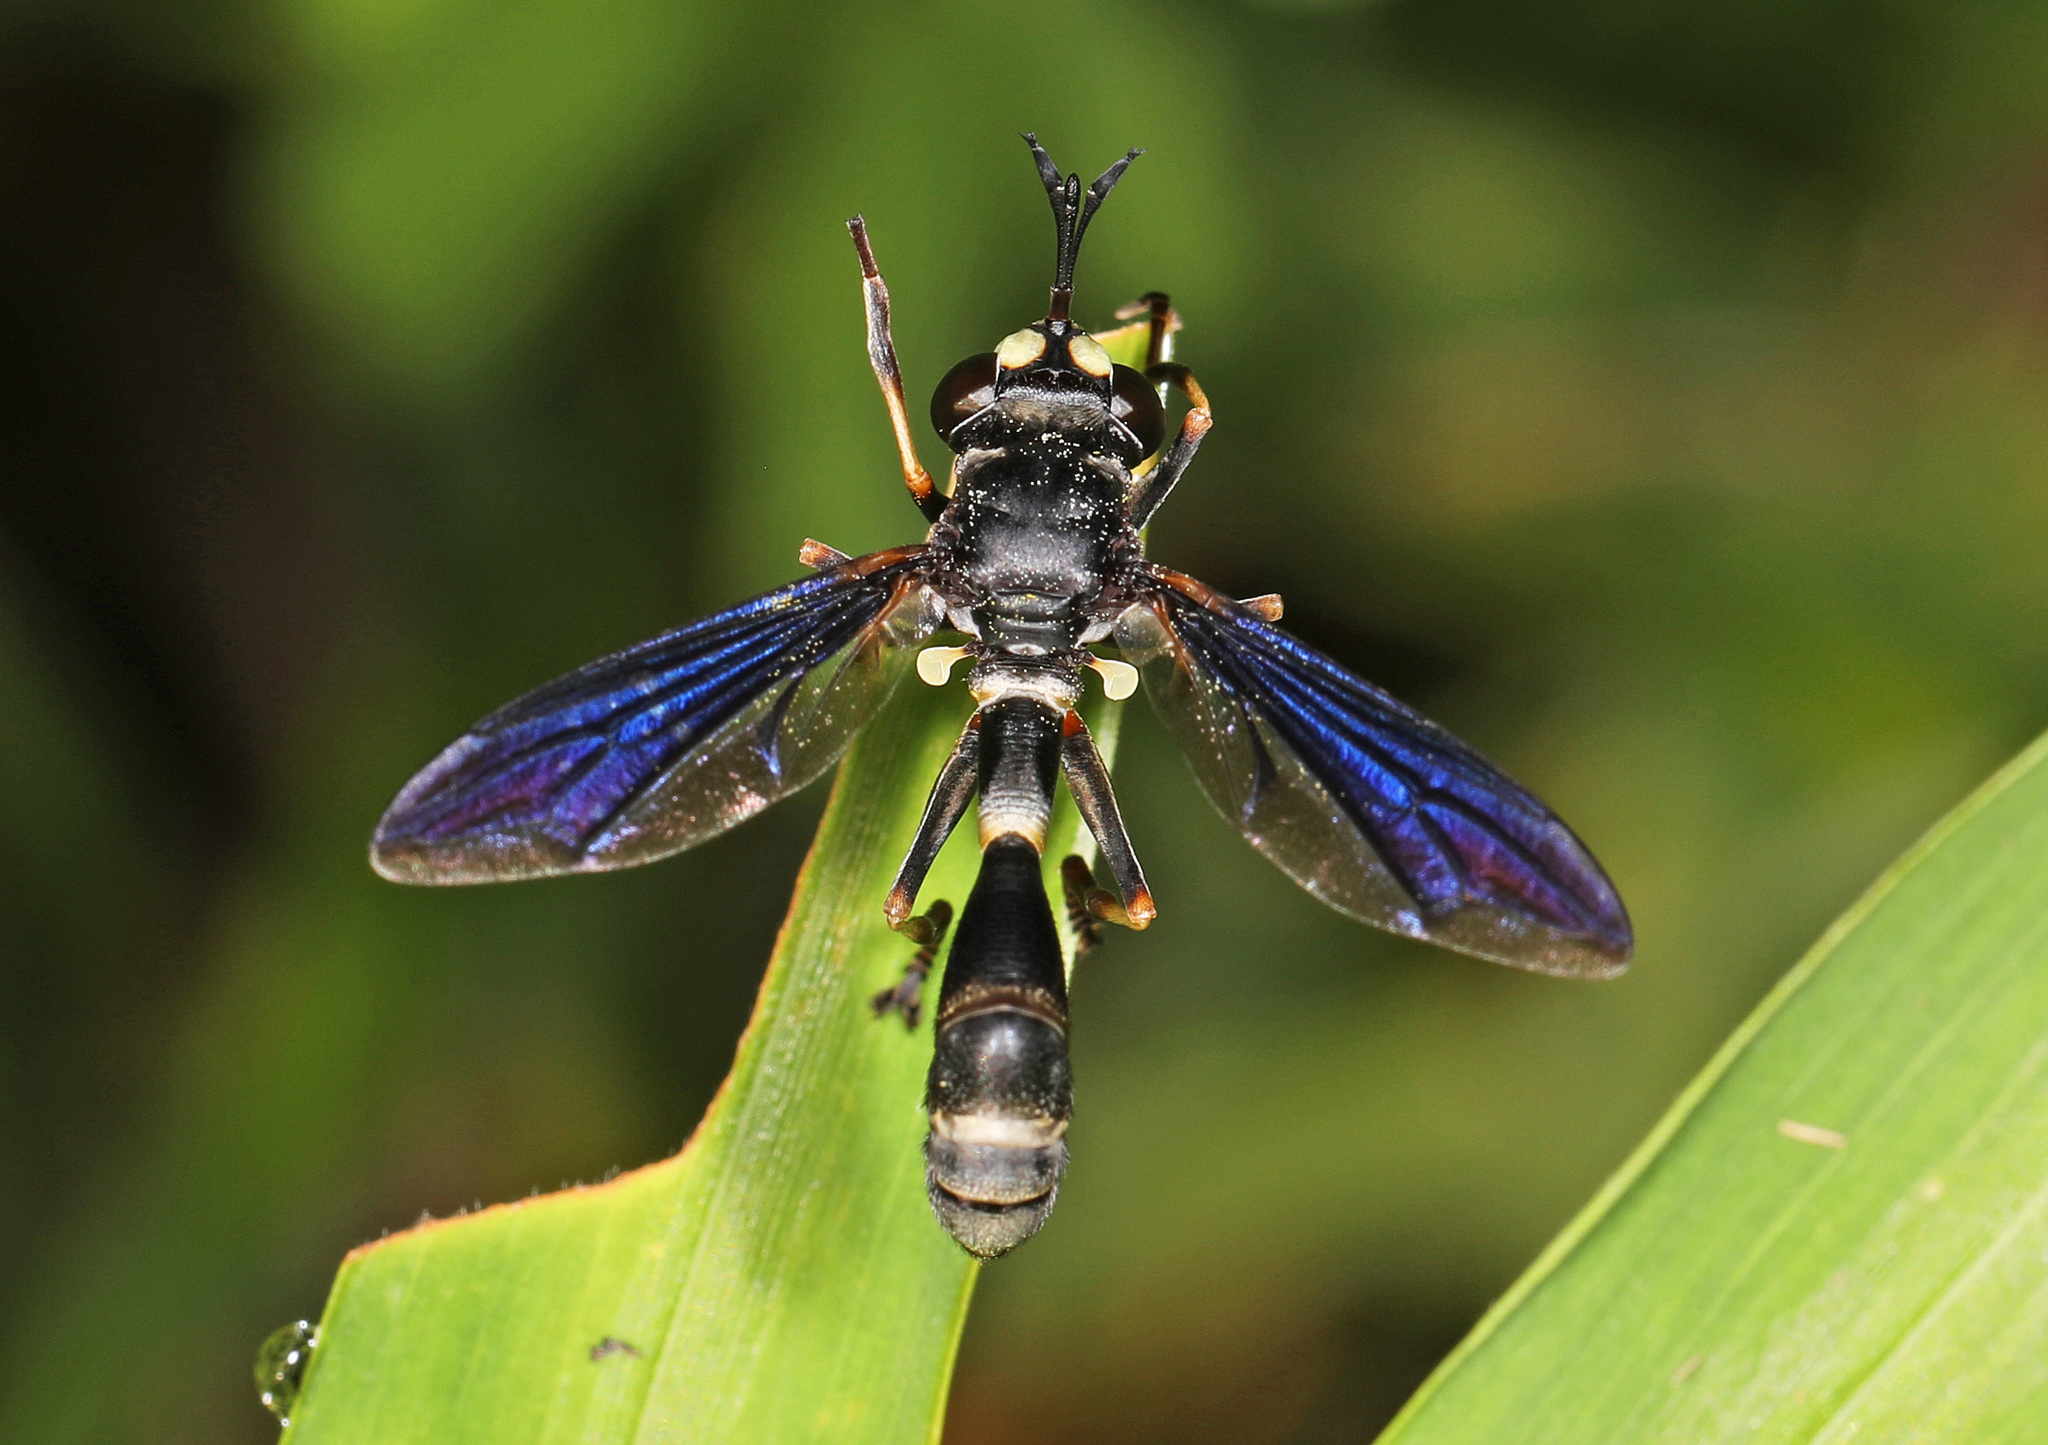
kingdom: Animalia
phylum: Arthropoda
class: Insecta
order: Diptera
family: Conopidae
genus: Physocephala
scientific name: Physocephala tibialis
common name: Common eastern physocephala
